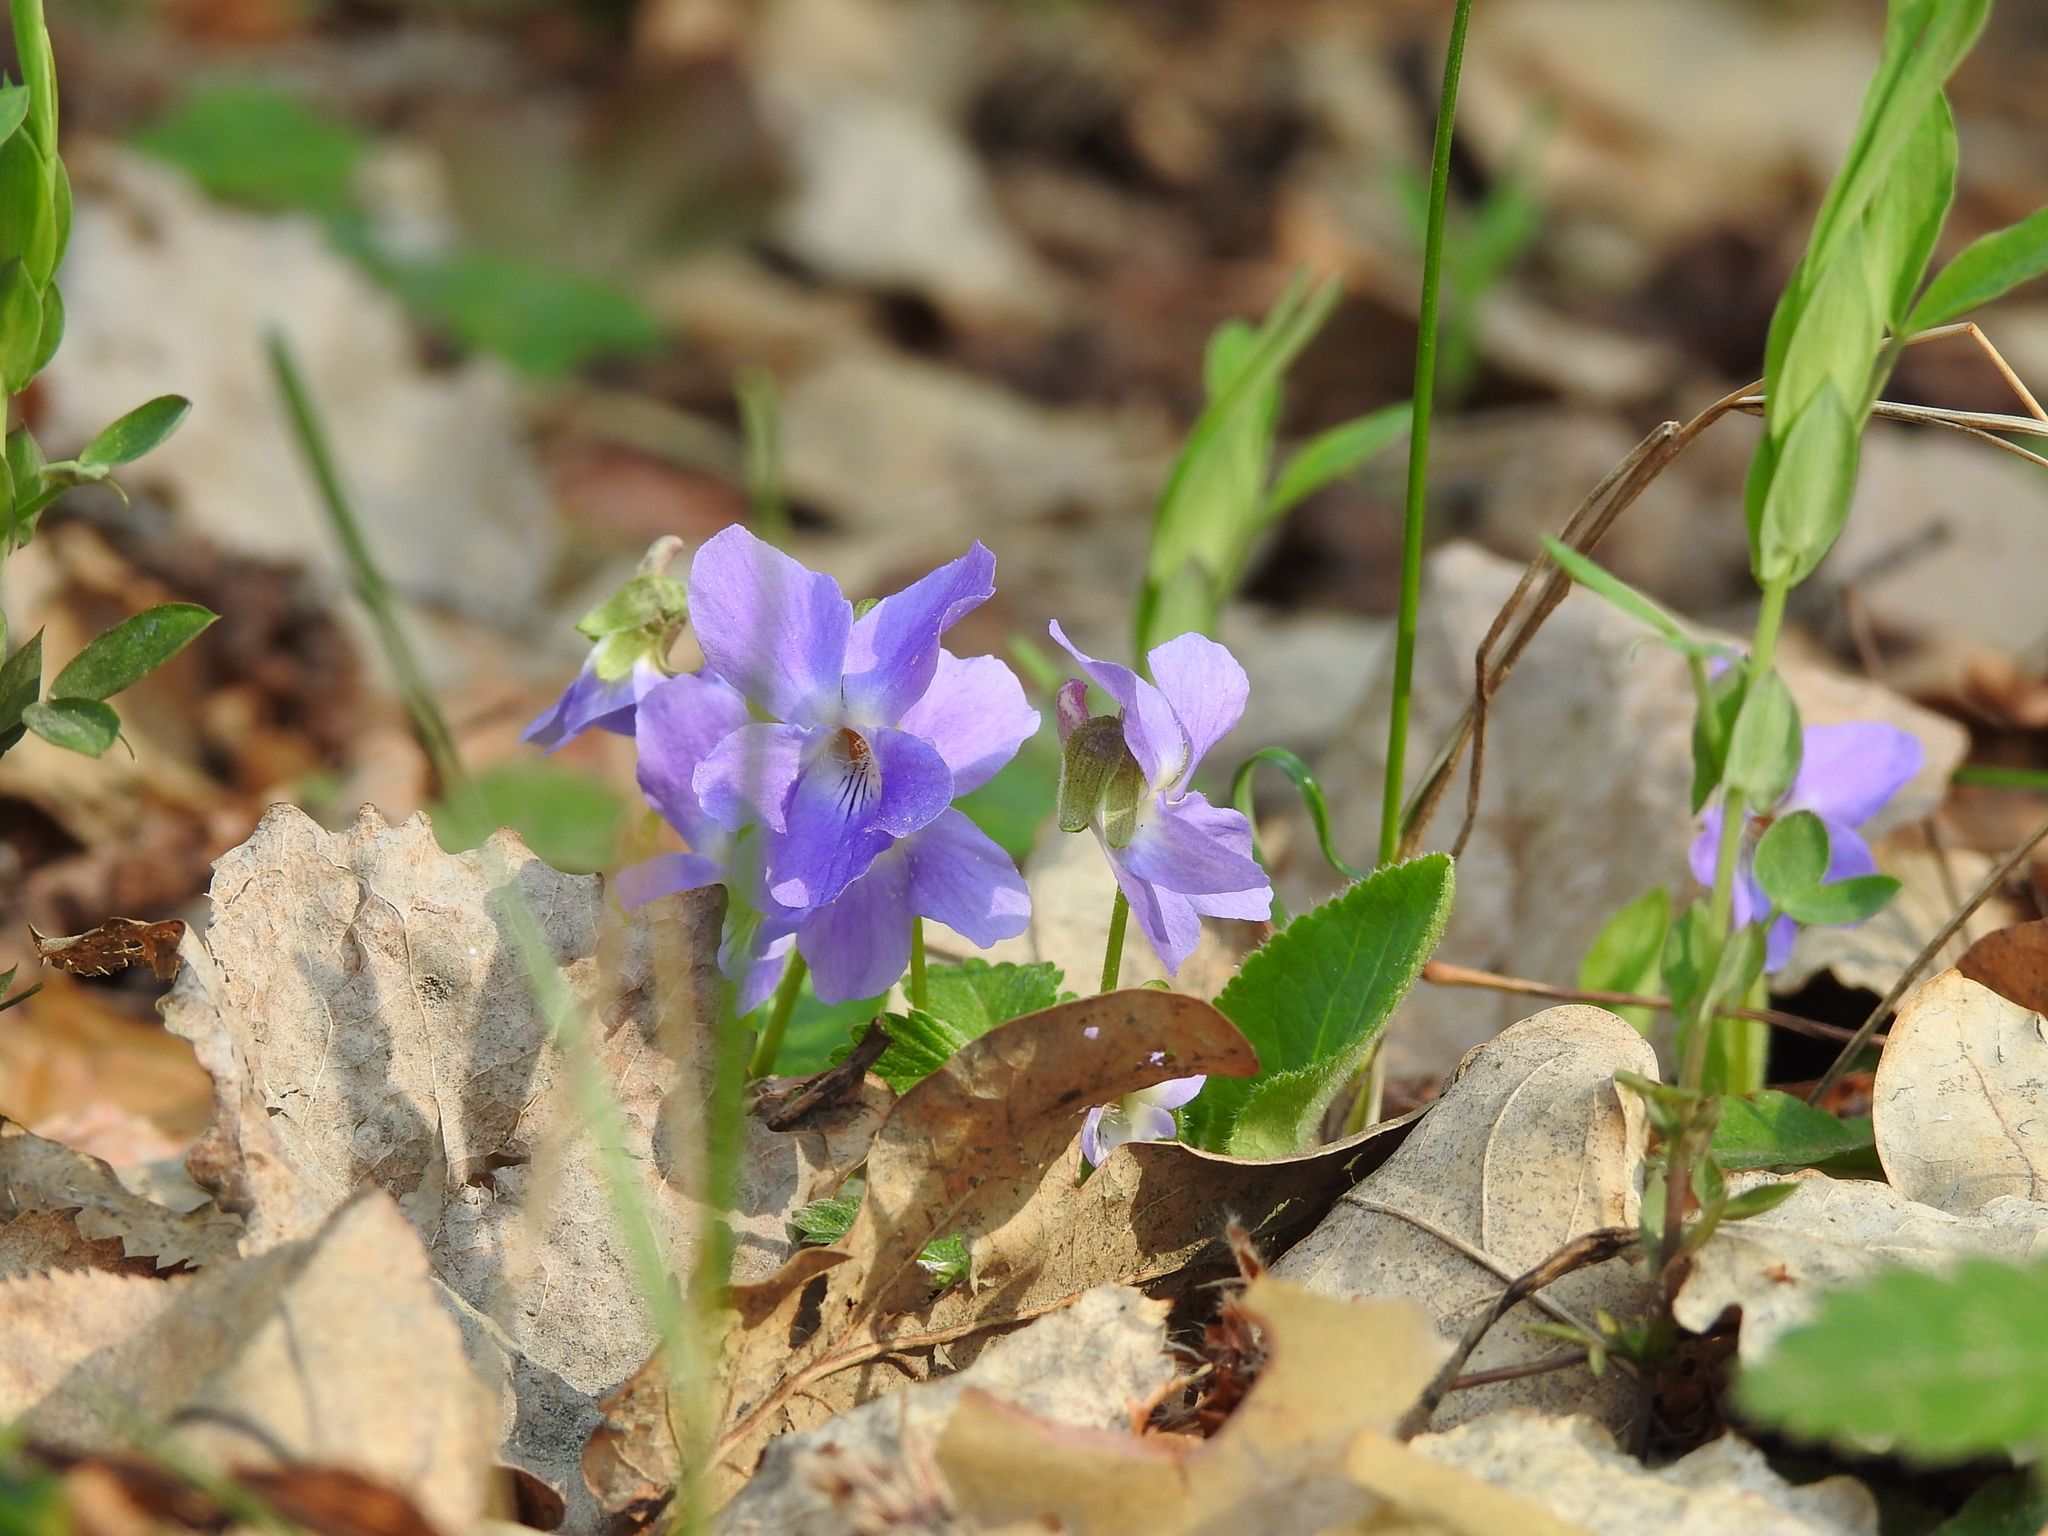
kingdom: Plantae
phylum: Tracheophyta
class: Magnoliopsida
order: Malpighiales
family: Violaceae
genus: Viola
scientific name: Viola hirta
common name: Hairy violet
